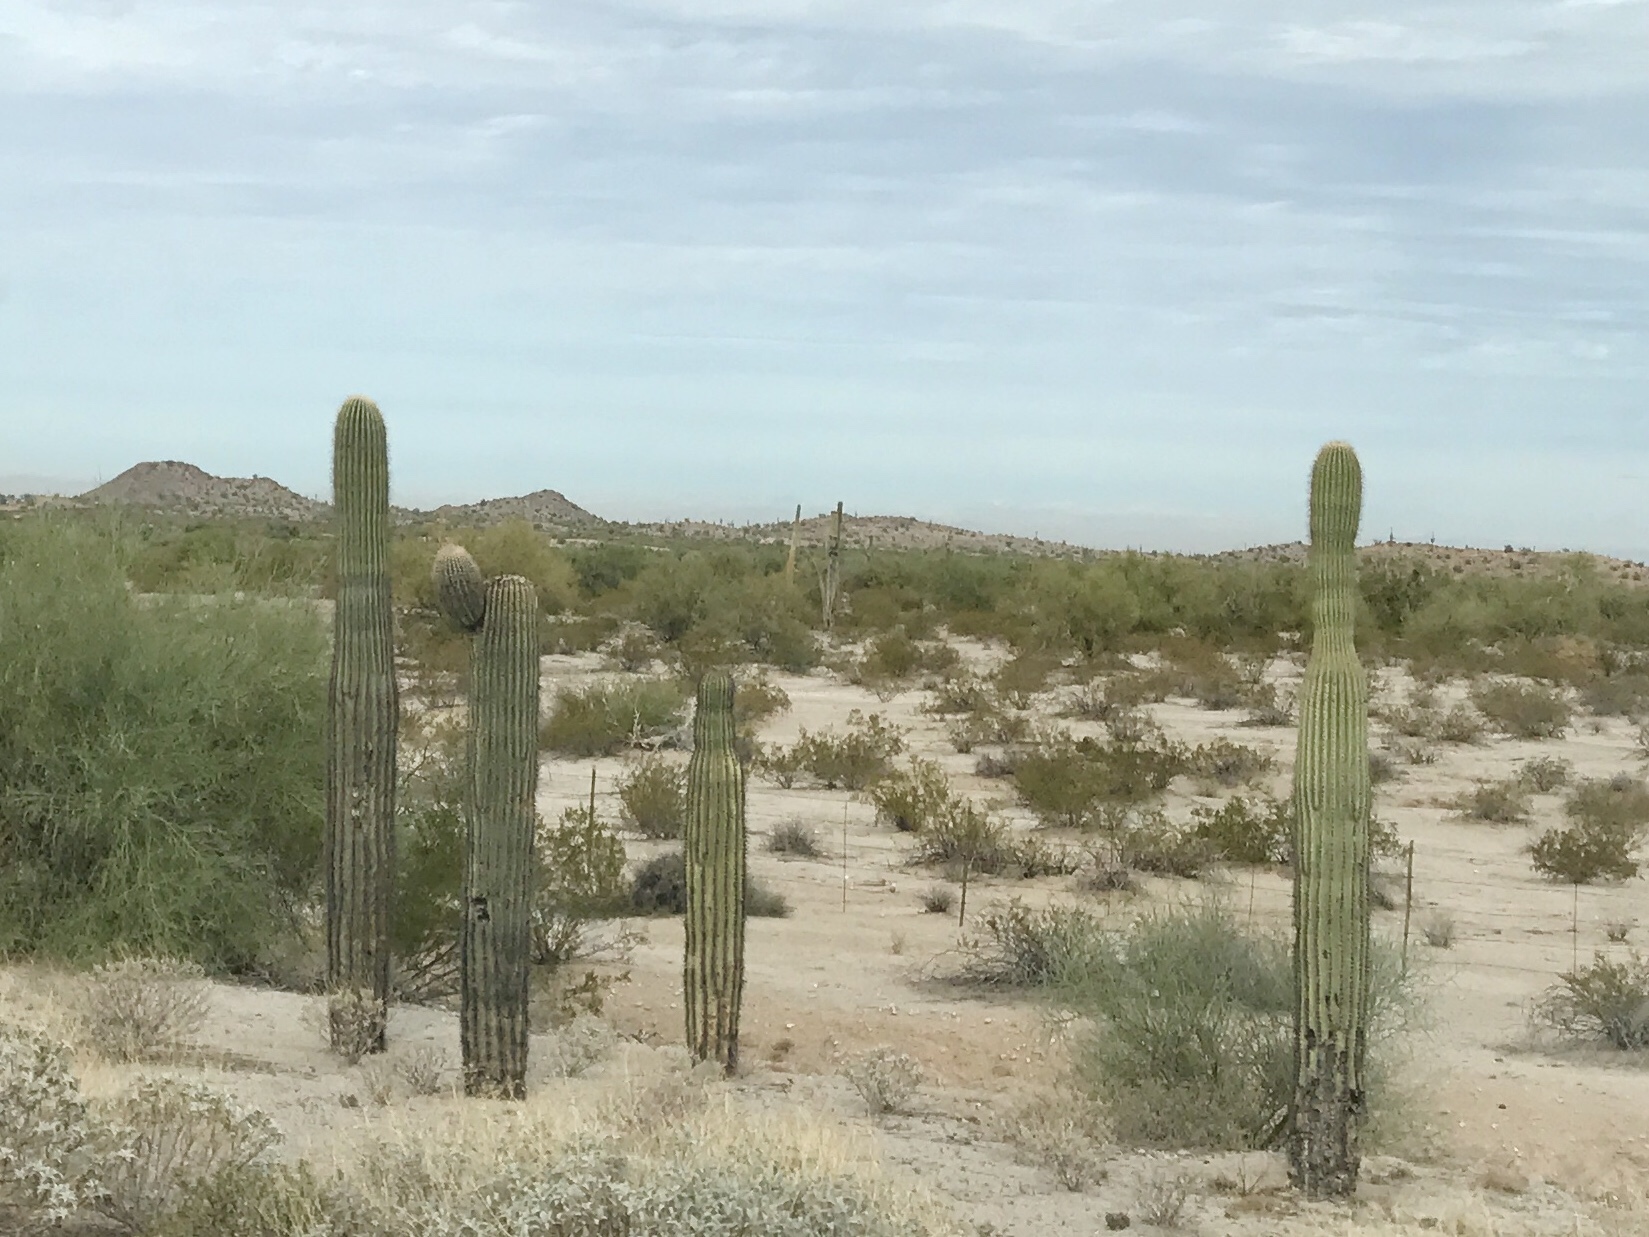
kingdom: Plantae
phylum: Tracheophyta
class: Magnoliopsida
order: Caryophyllales
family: Cactaceae
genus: Carnegiea
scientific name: Carnegiea gigantea
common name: Saguaro
